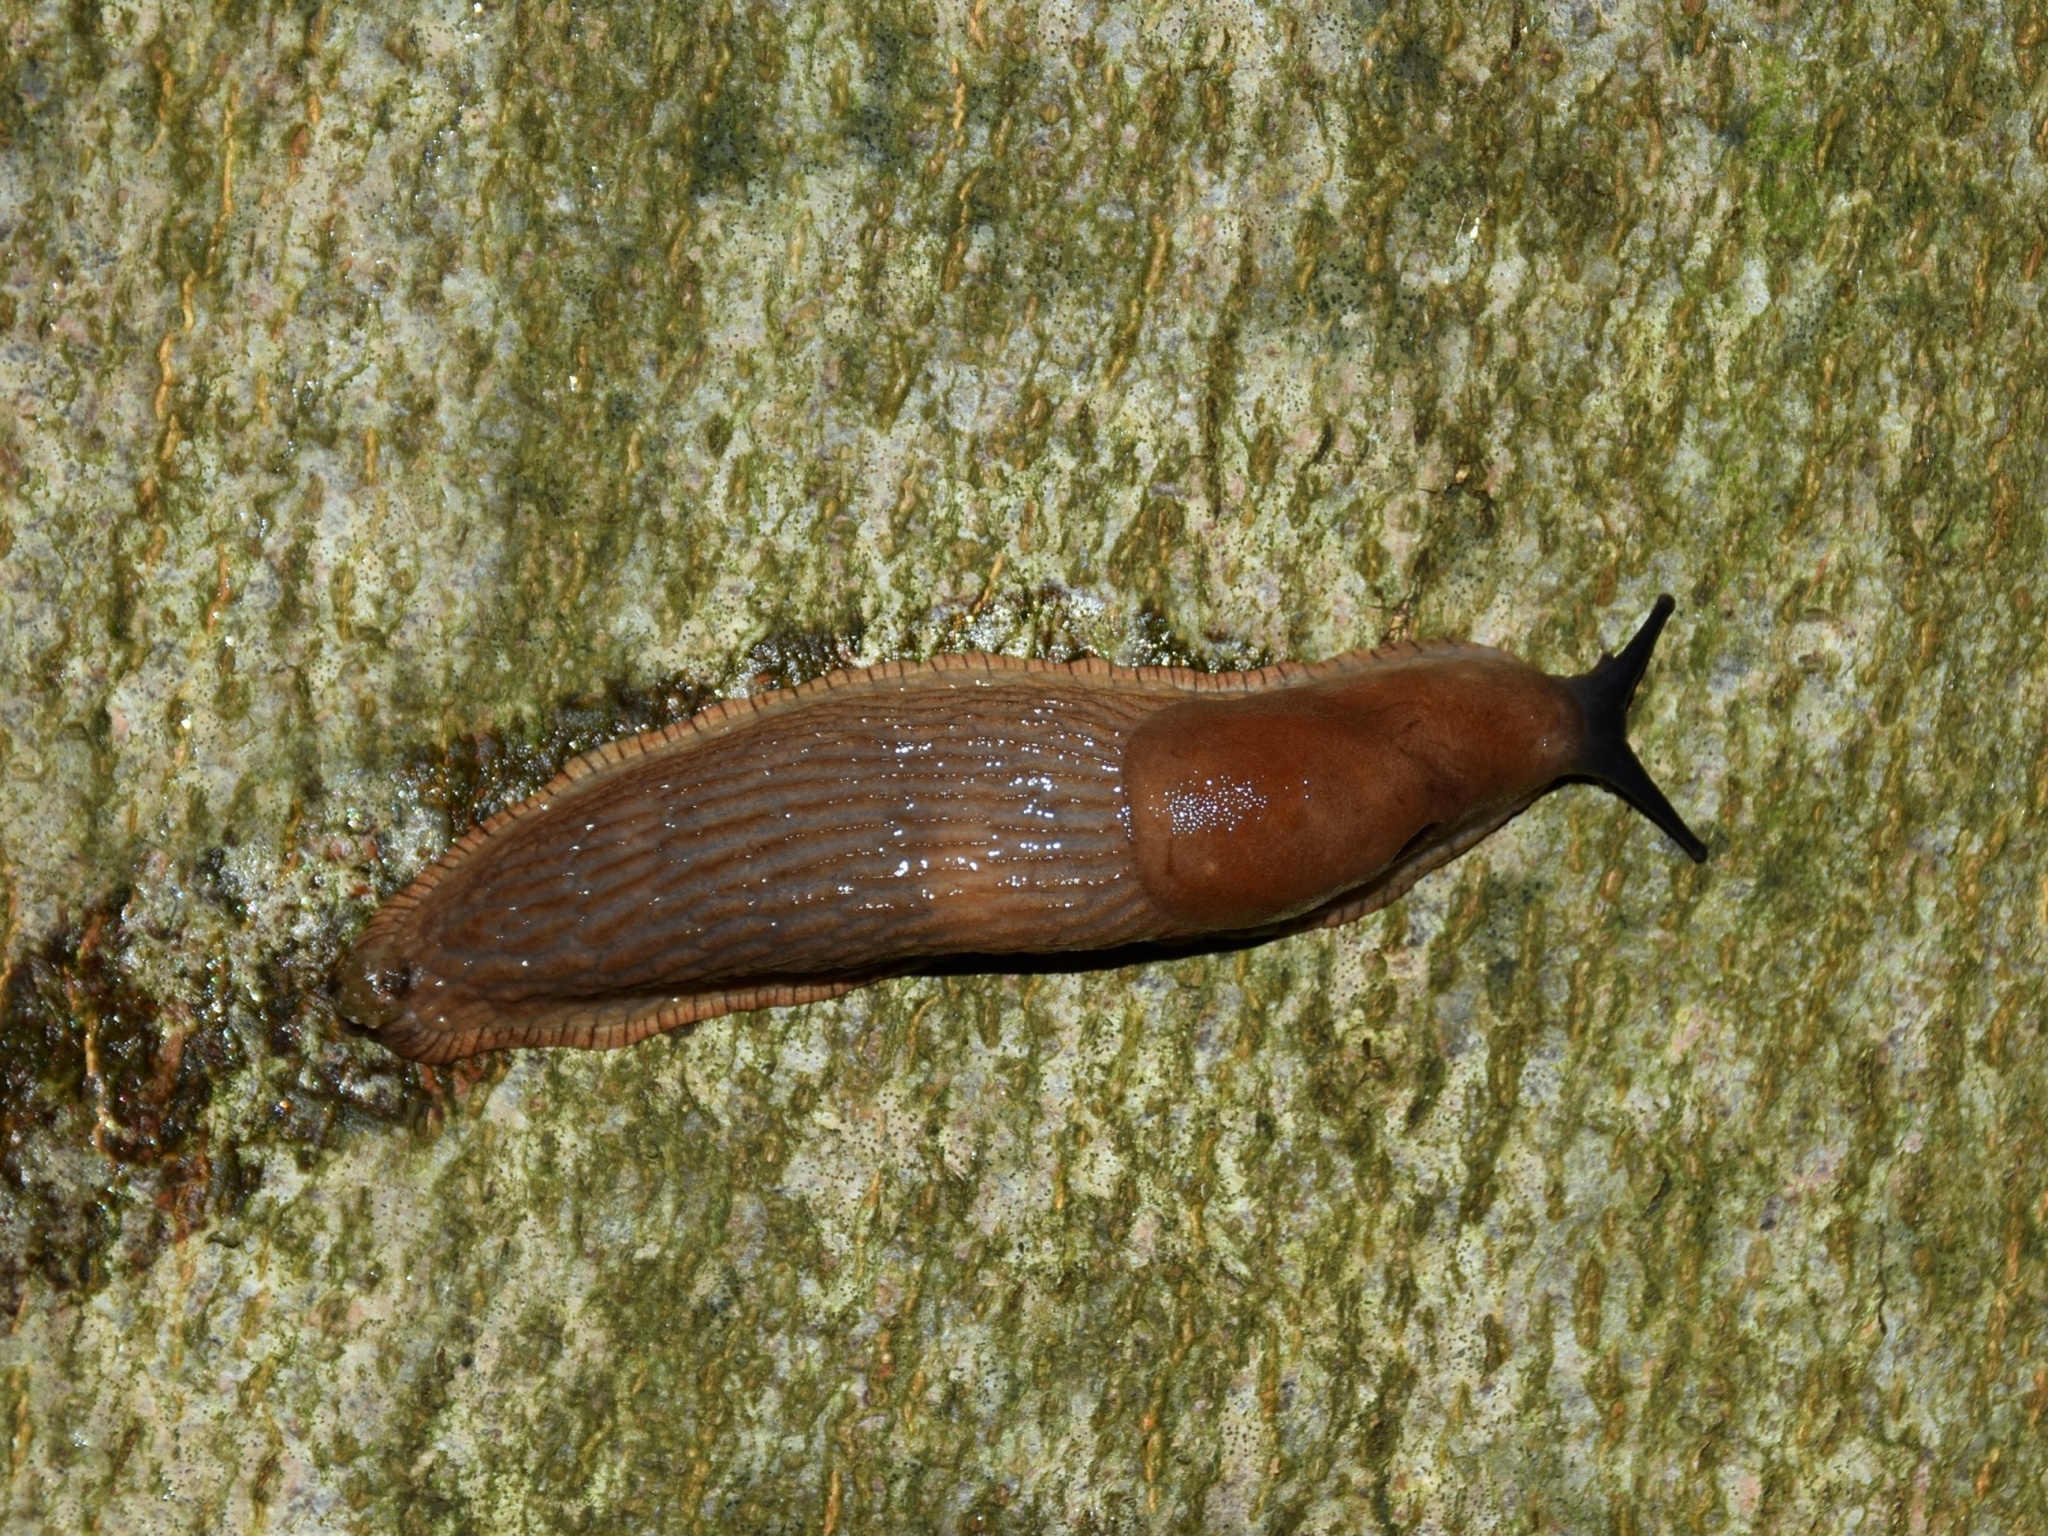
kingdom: Animalia
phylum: Mollusca
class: Gastropoda
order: Stylommatophora
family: Arionidae
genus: Arion
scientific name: Arion rufus
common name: Chocolate arion
